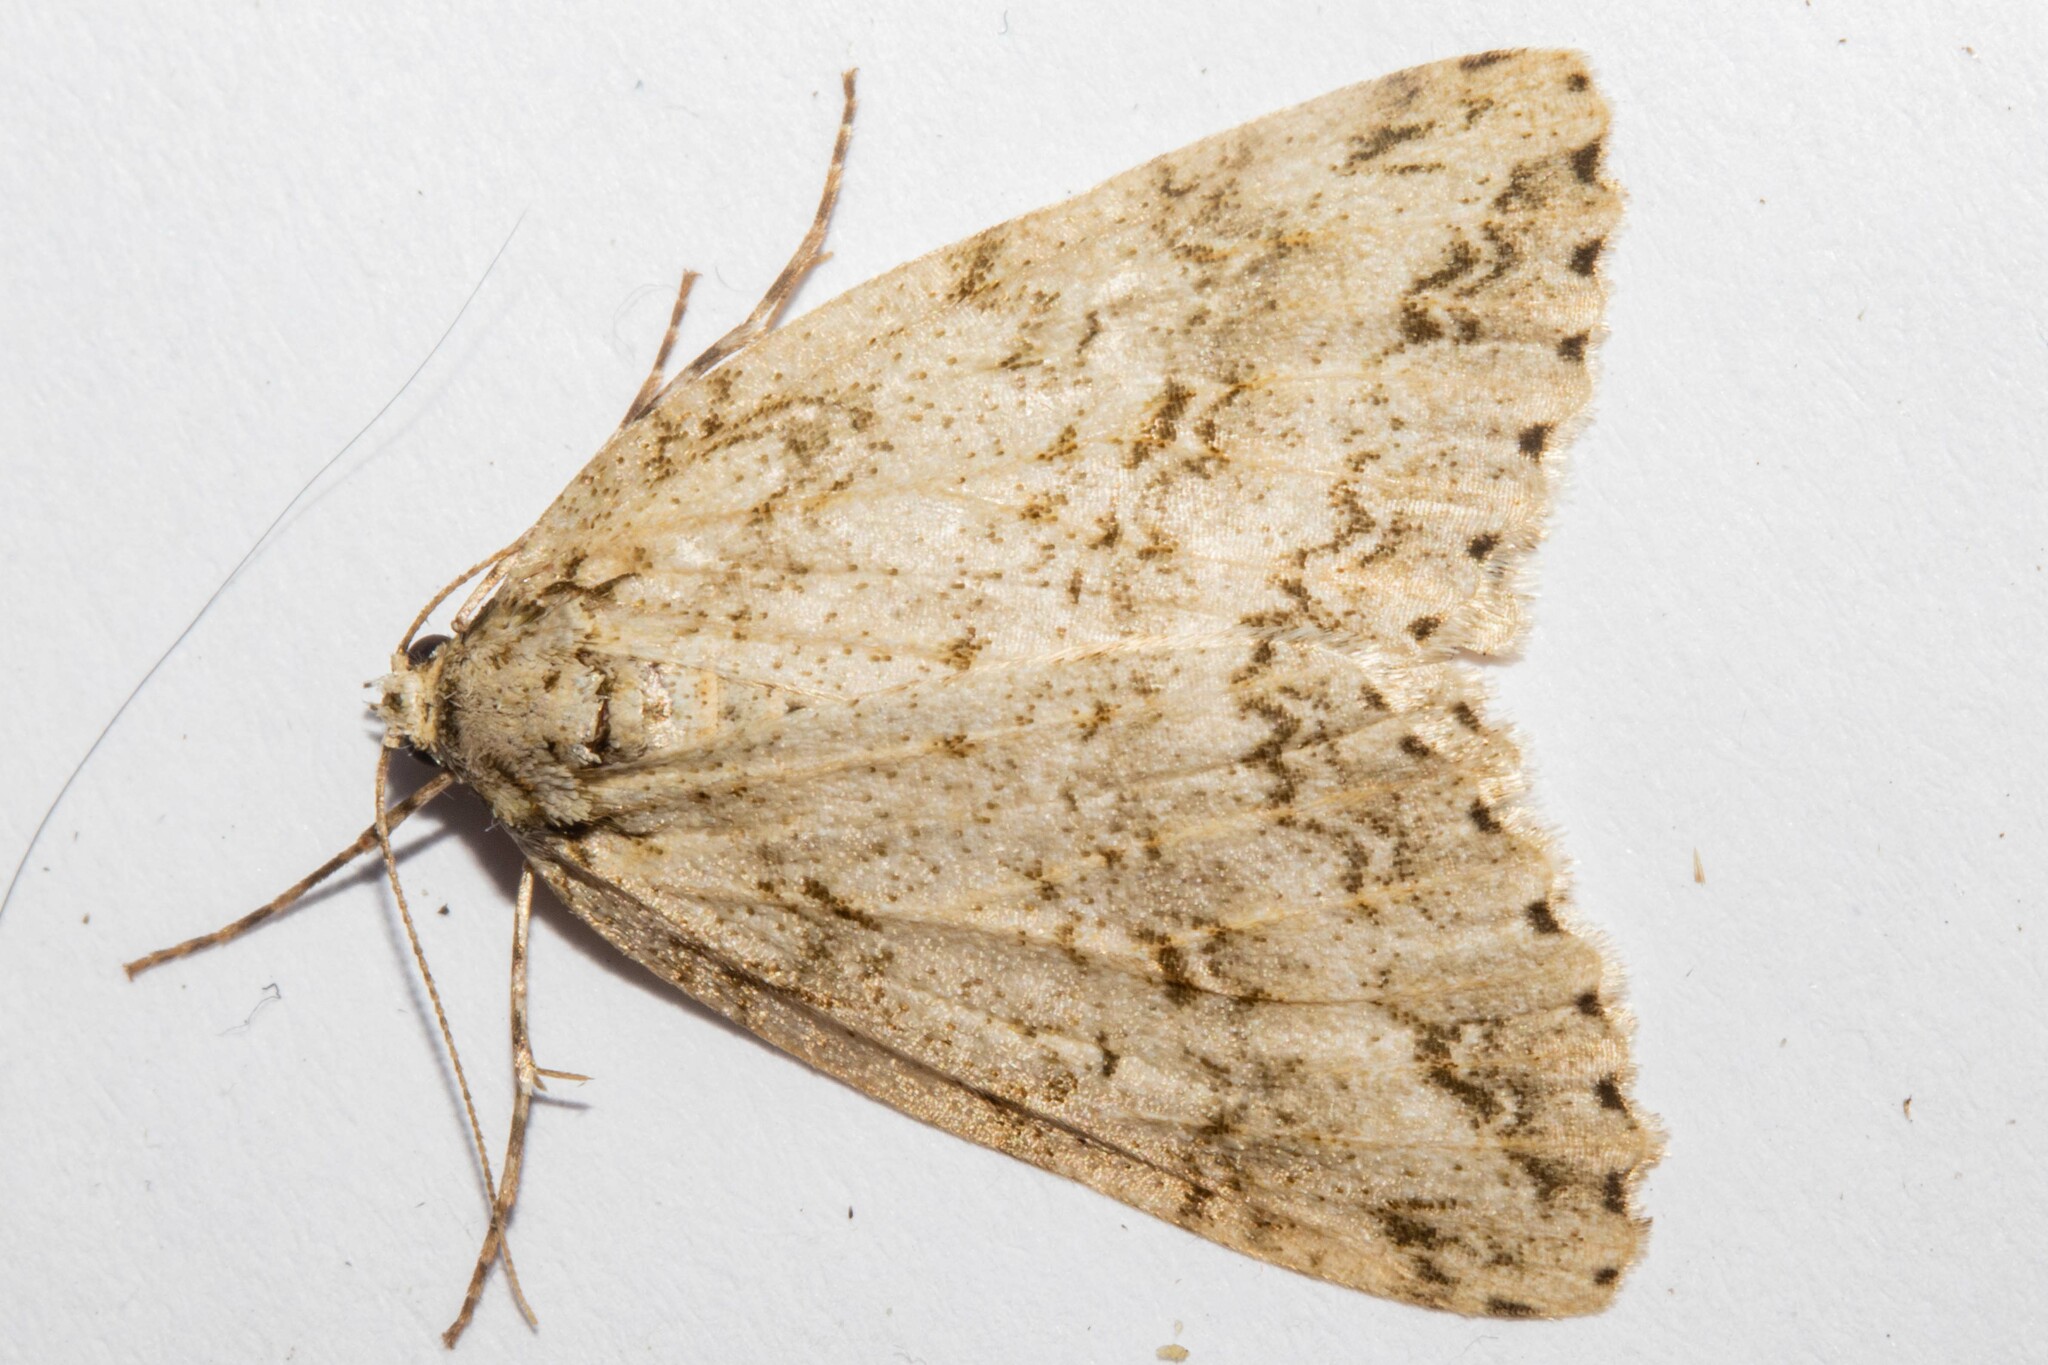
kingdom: Animalia
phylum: Arthropoda
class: Insecta
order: Lepidoptera
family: Geometridae
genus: Pseudocoremia
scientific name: Pseudocoremia rudisata
